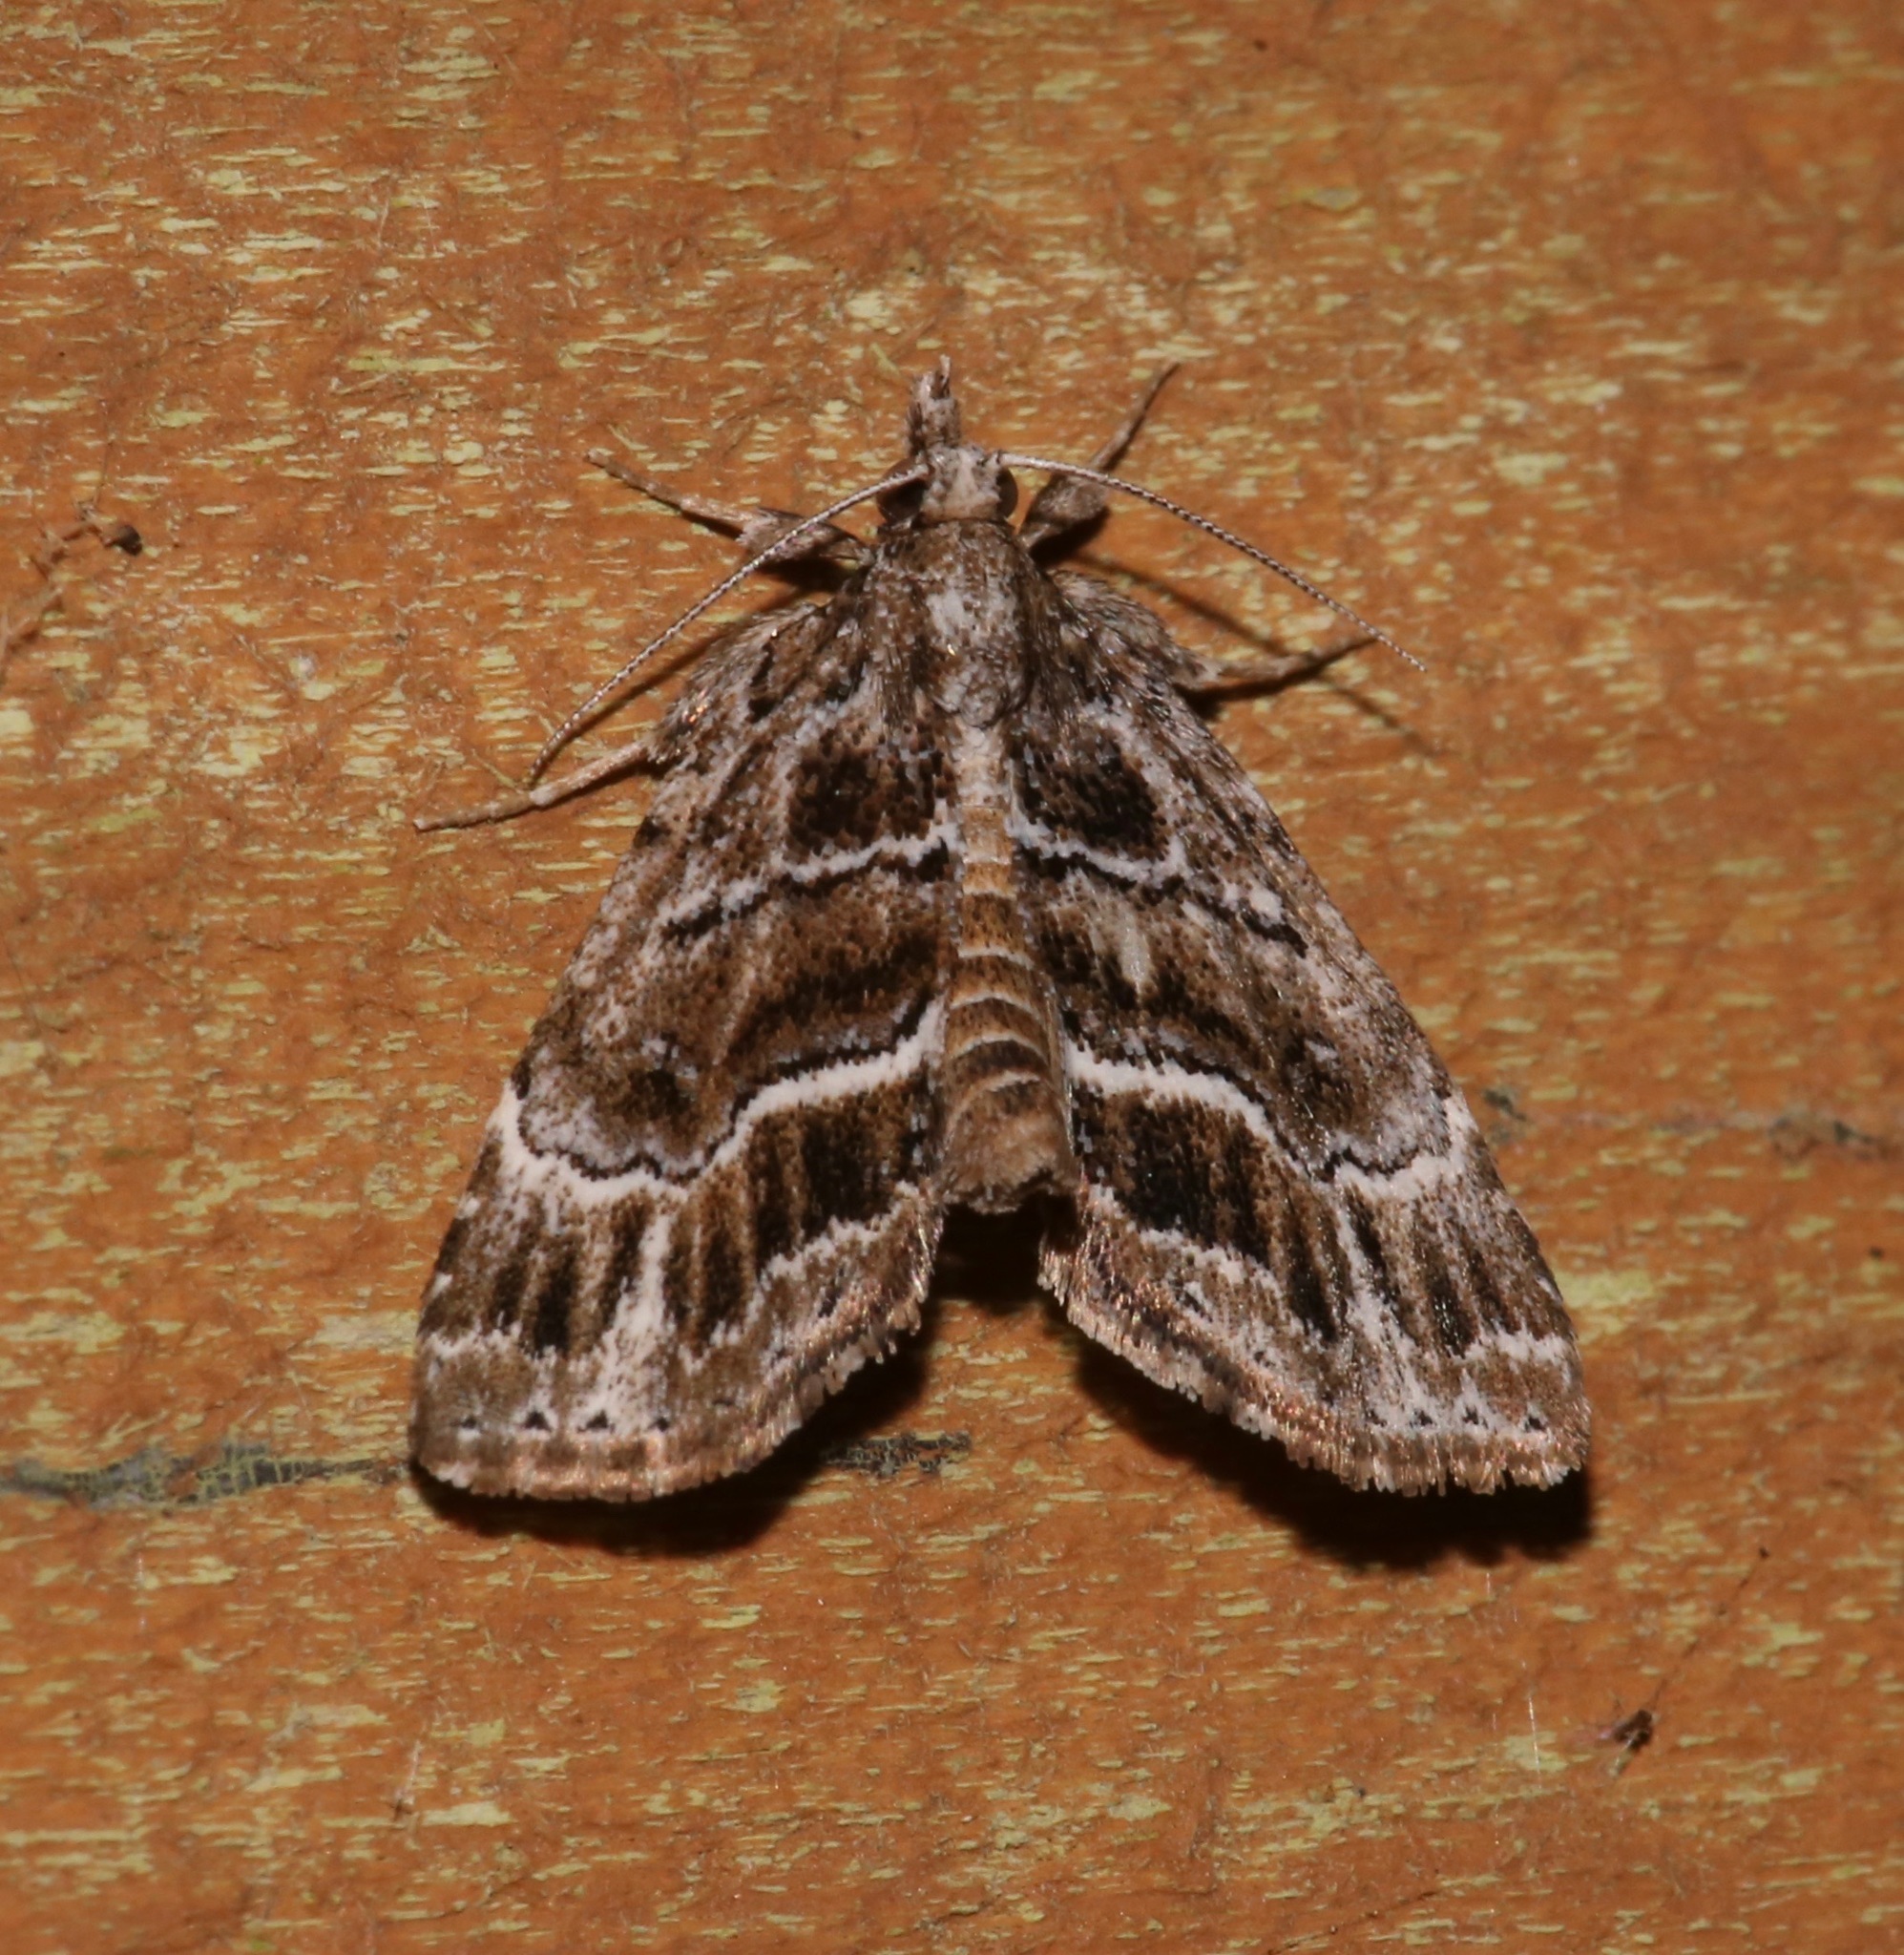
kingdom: Animalia
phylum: Arthropoda
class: Insecta
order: Lepidoptera
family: Erebidae
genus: Cutina
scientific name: Cutina arcuata
